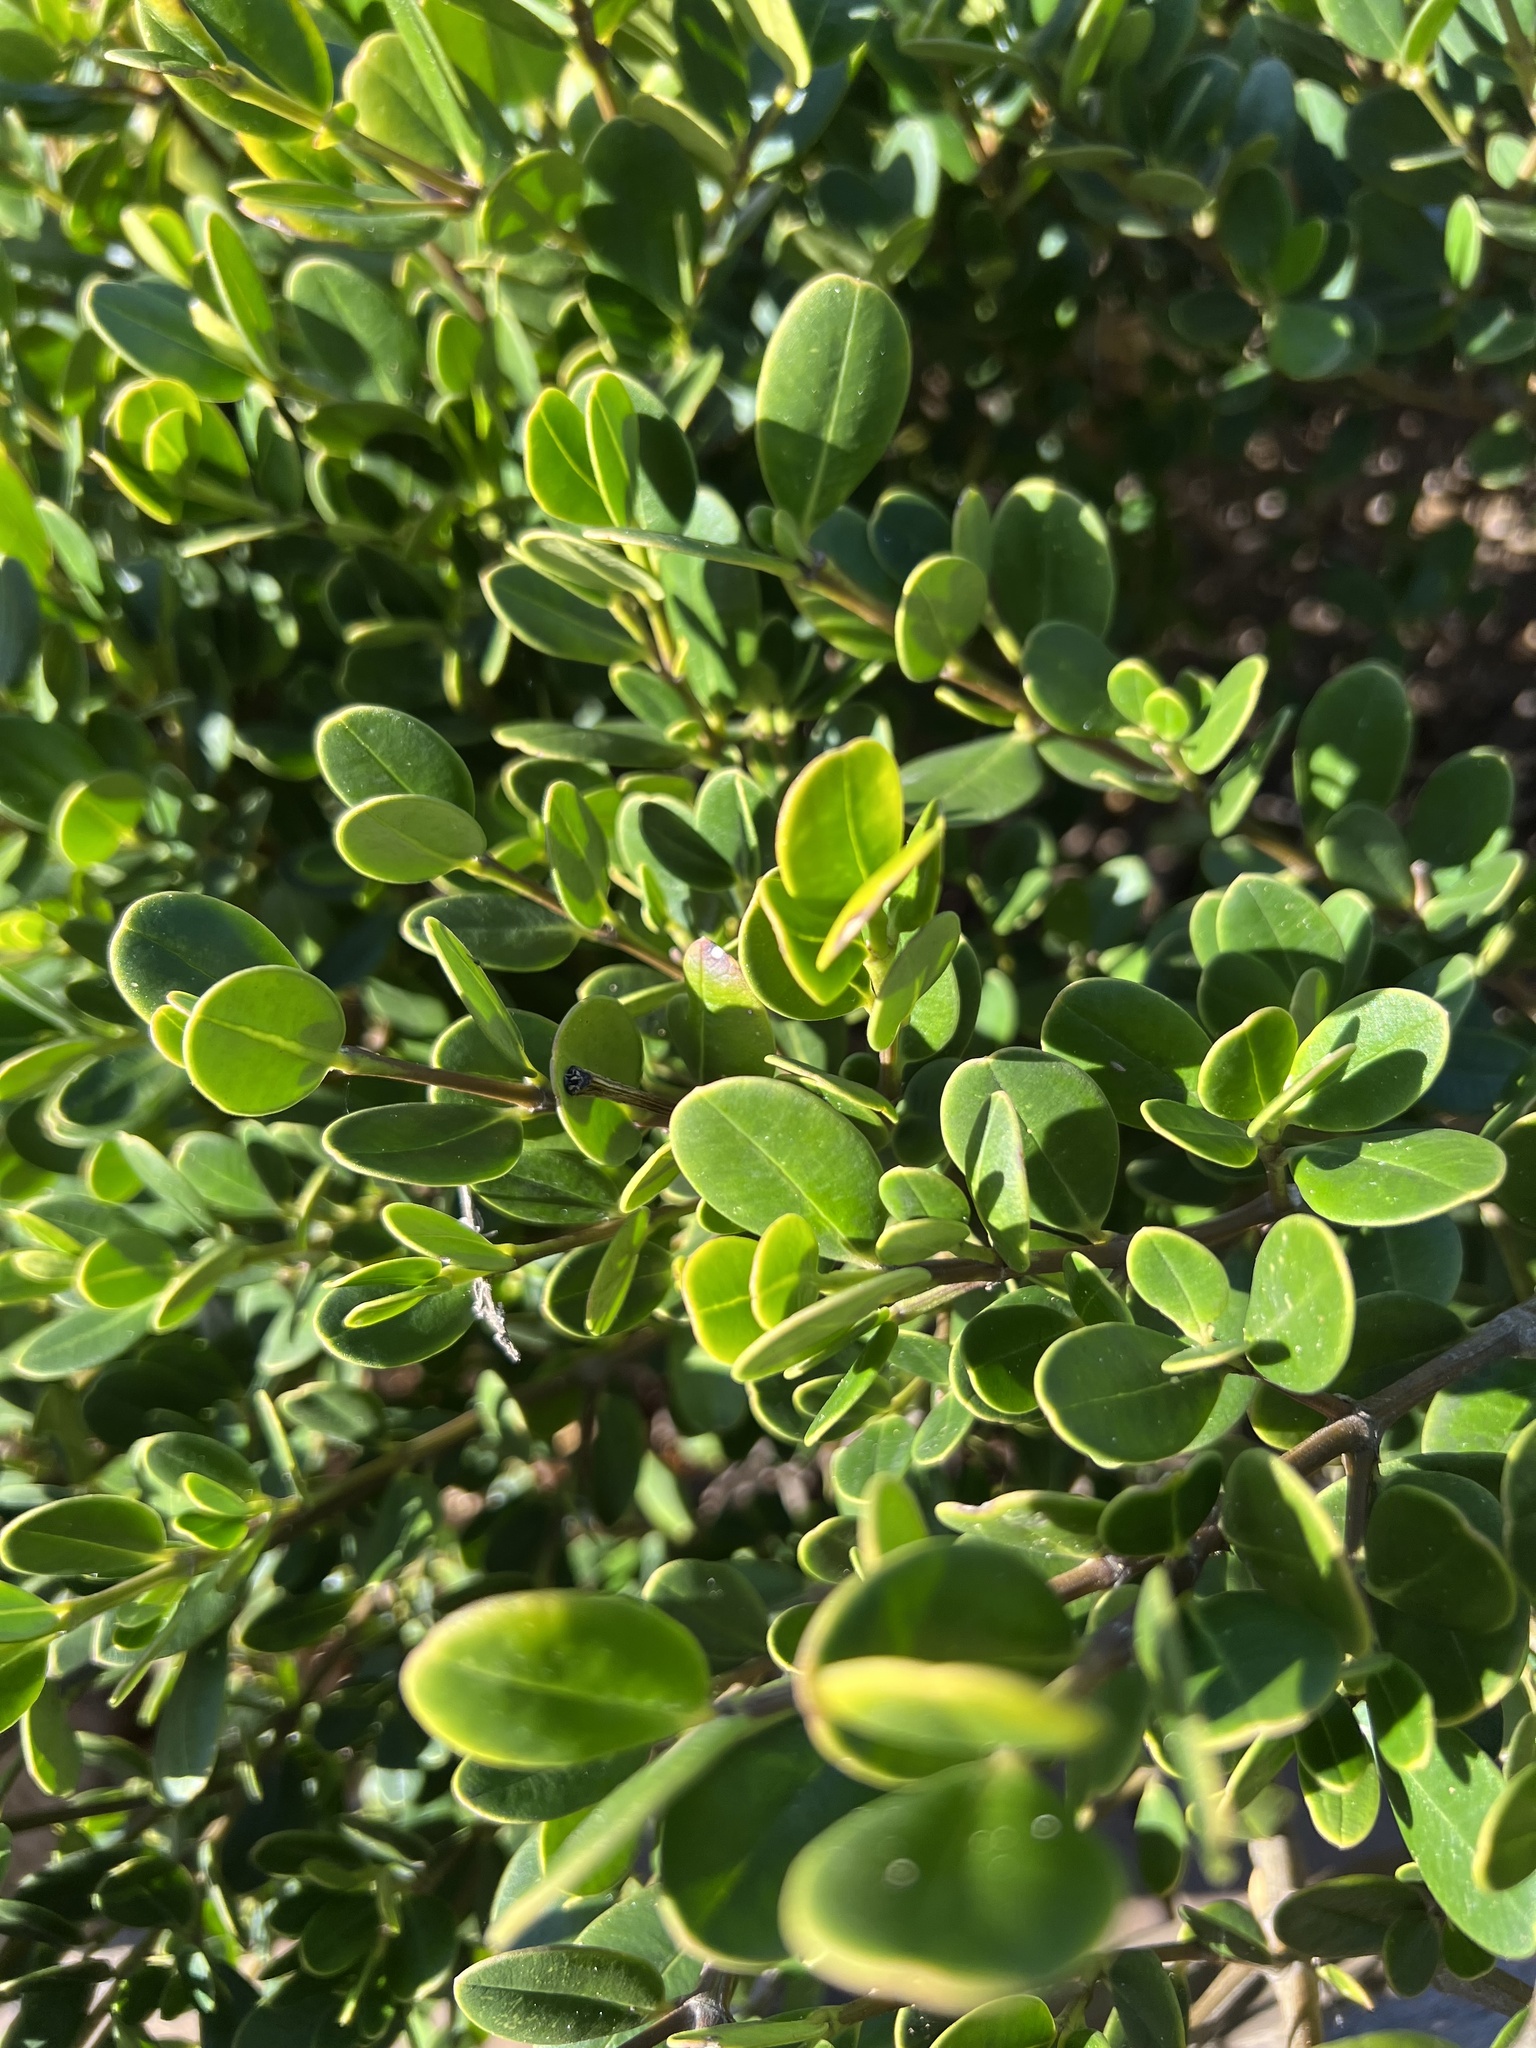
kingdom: Plantae
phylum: Tracheophyta
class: Magnoliopsida
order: Gentianales
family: Apocynaceae
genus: Alyxia
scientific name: Alyxia buxifolia
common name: Dysentery-bush
